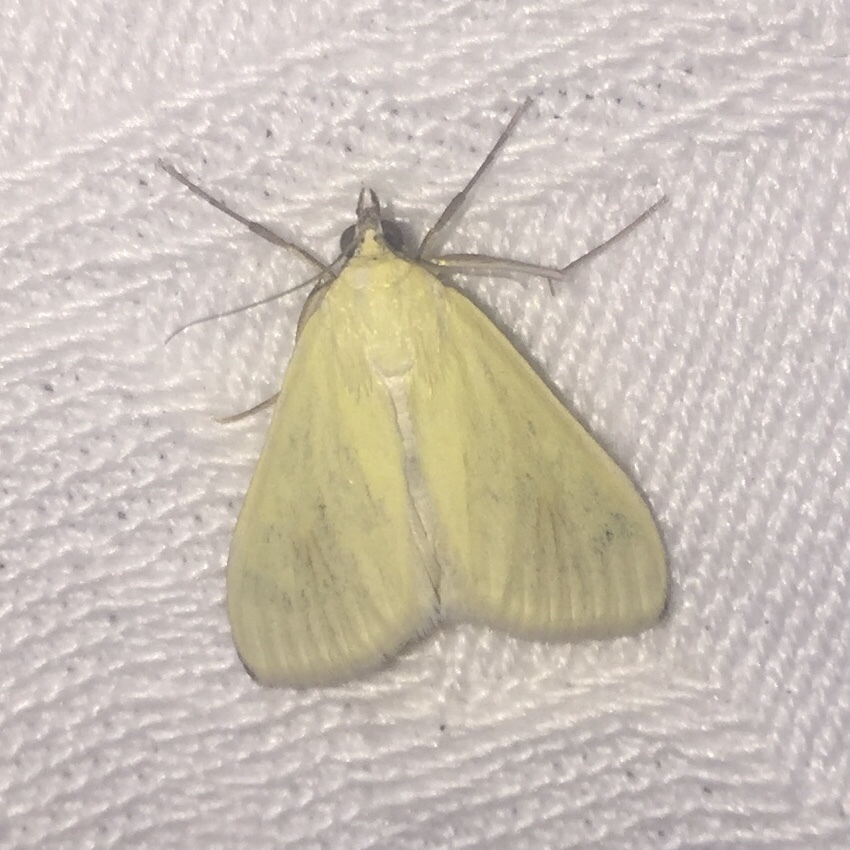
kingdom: Animalia
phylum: Arthropoda
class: Insecta
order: Lepidoptera
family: Crambidae
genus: Sitochroa
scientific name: Sitochroa palealis
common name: Greenish-yellow sitochroa moth
